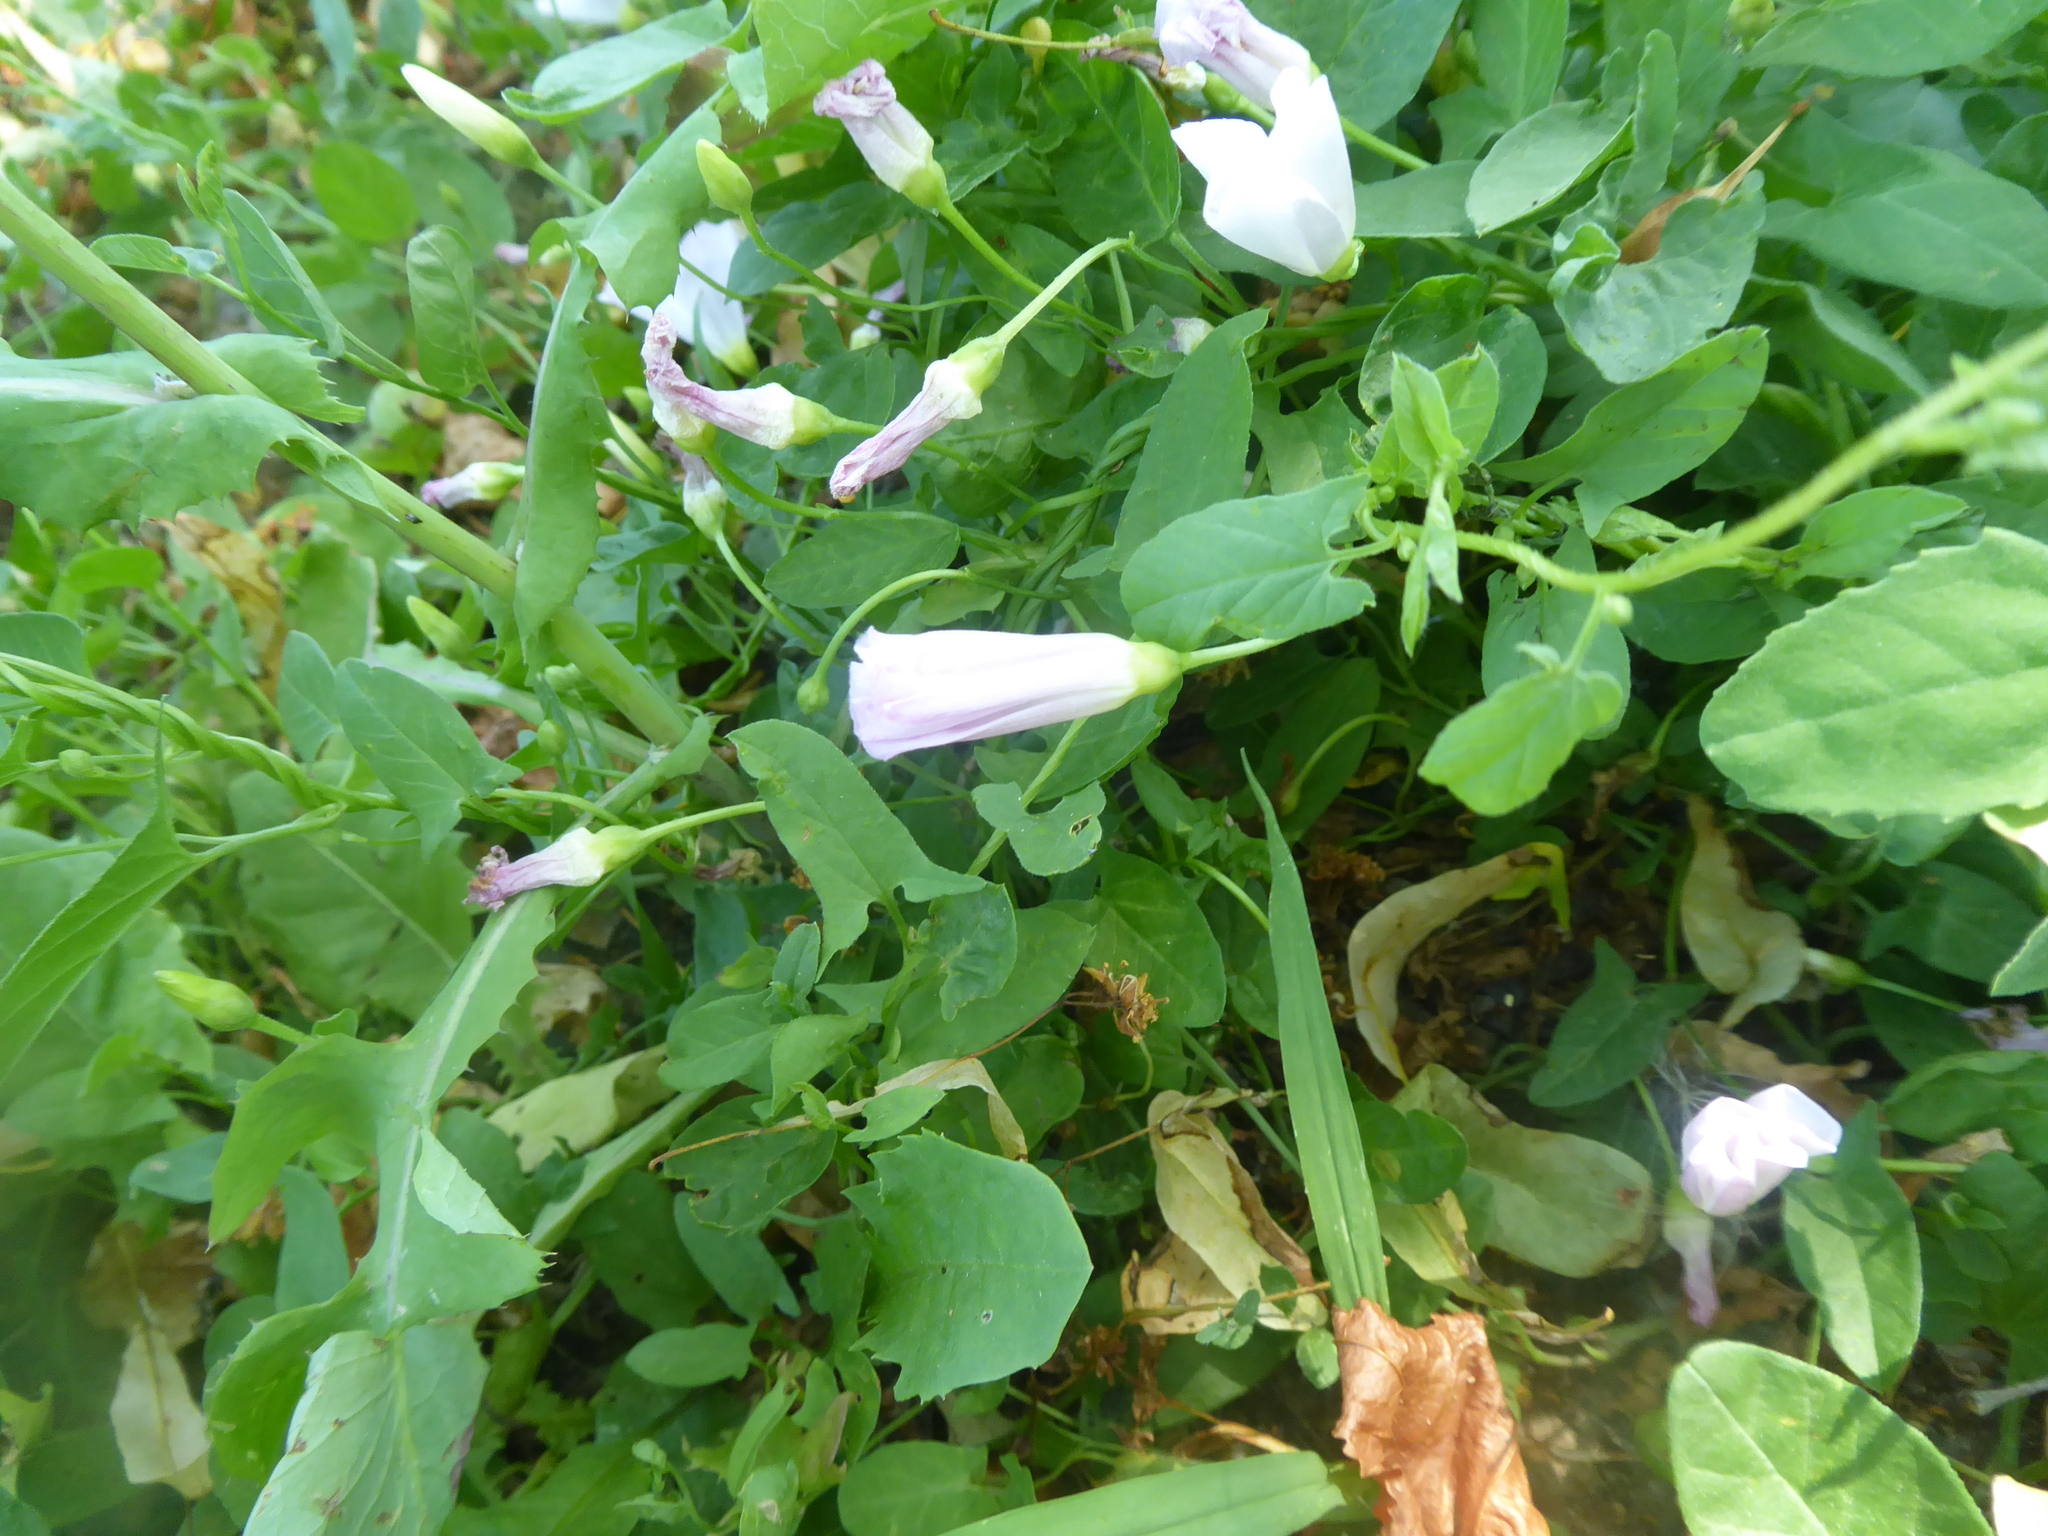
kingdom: Plantae
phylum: Tracheophyta
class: Magnoliopsida
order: Solanales
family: Convolvulaceae
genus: Convolvulus
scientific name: Convolvulus arvensis
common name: Field bindweed
